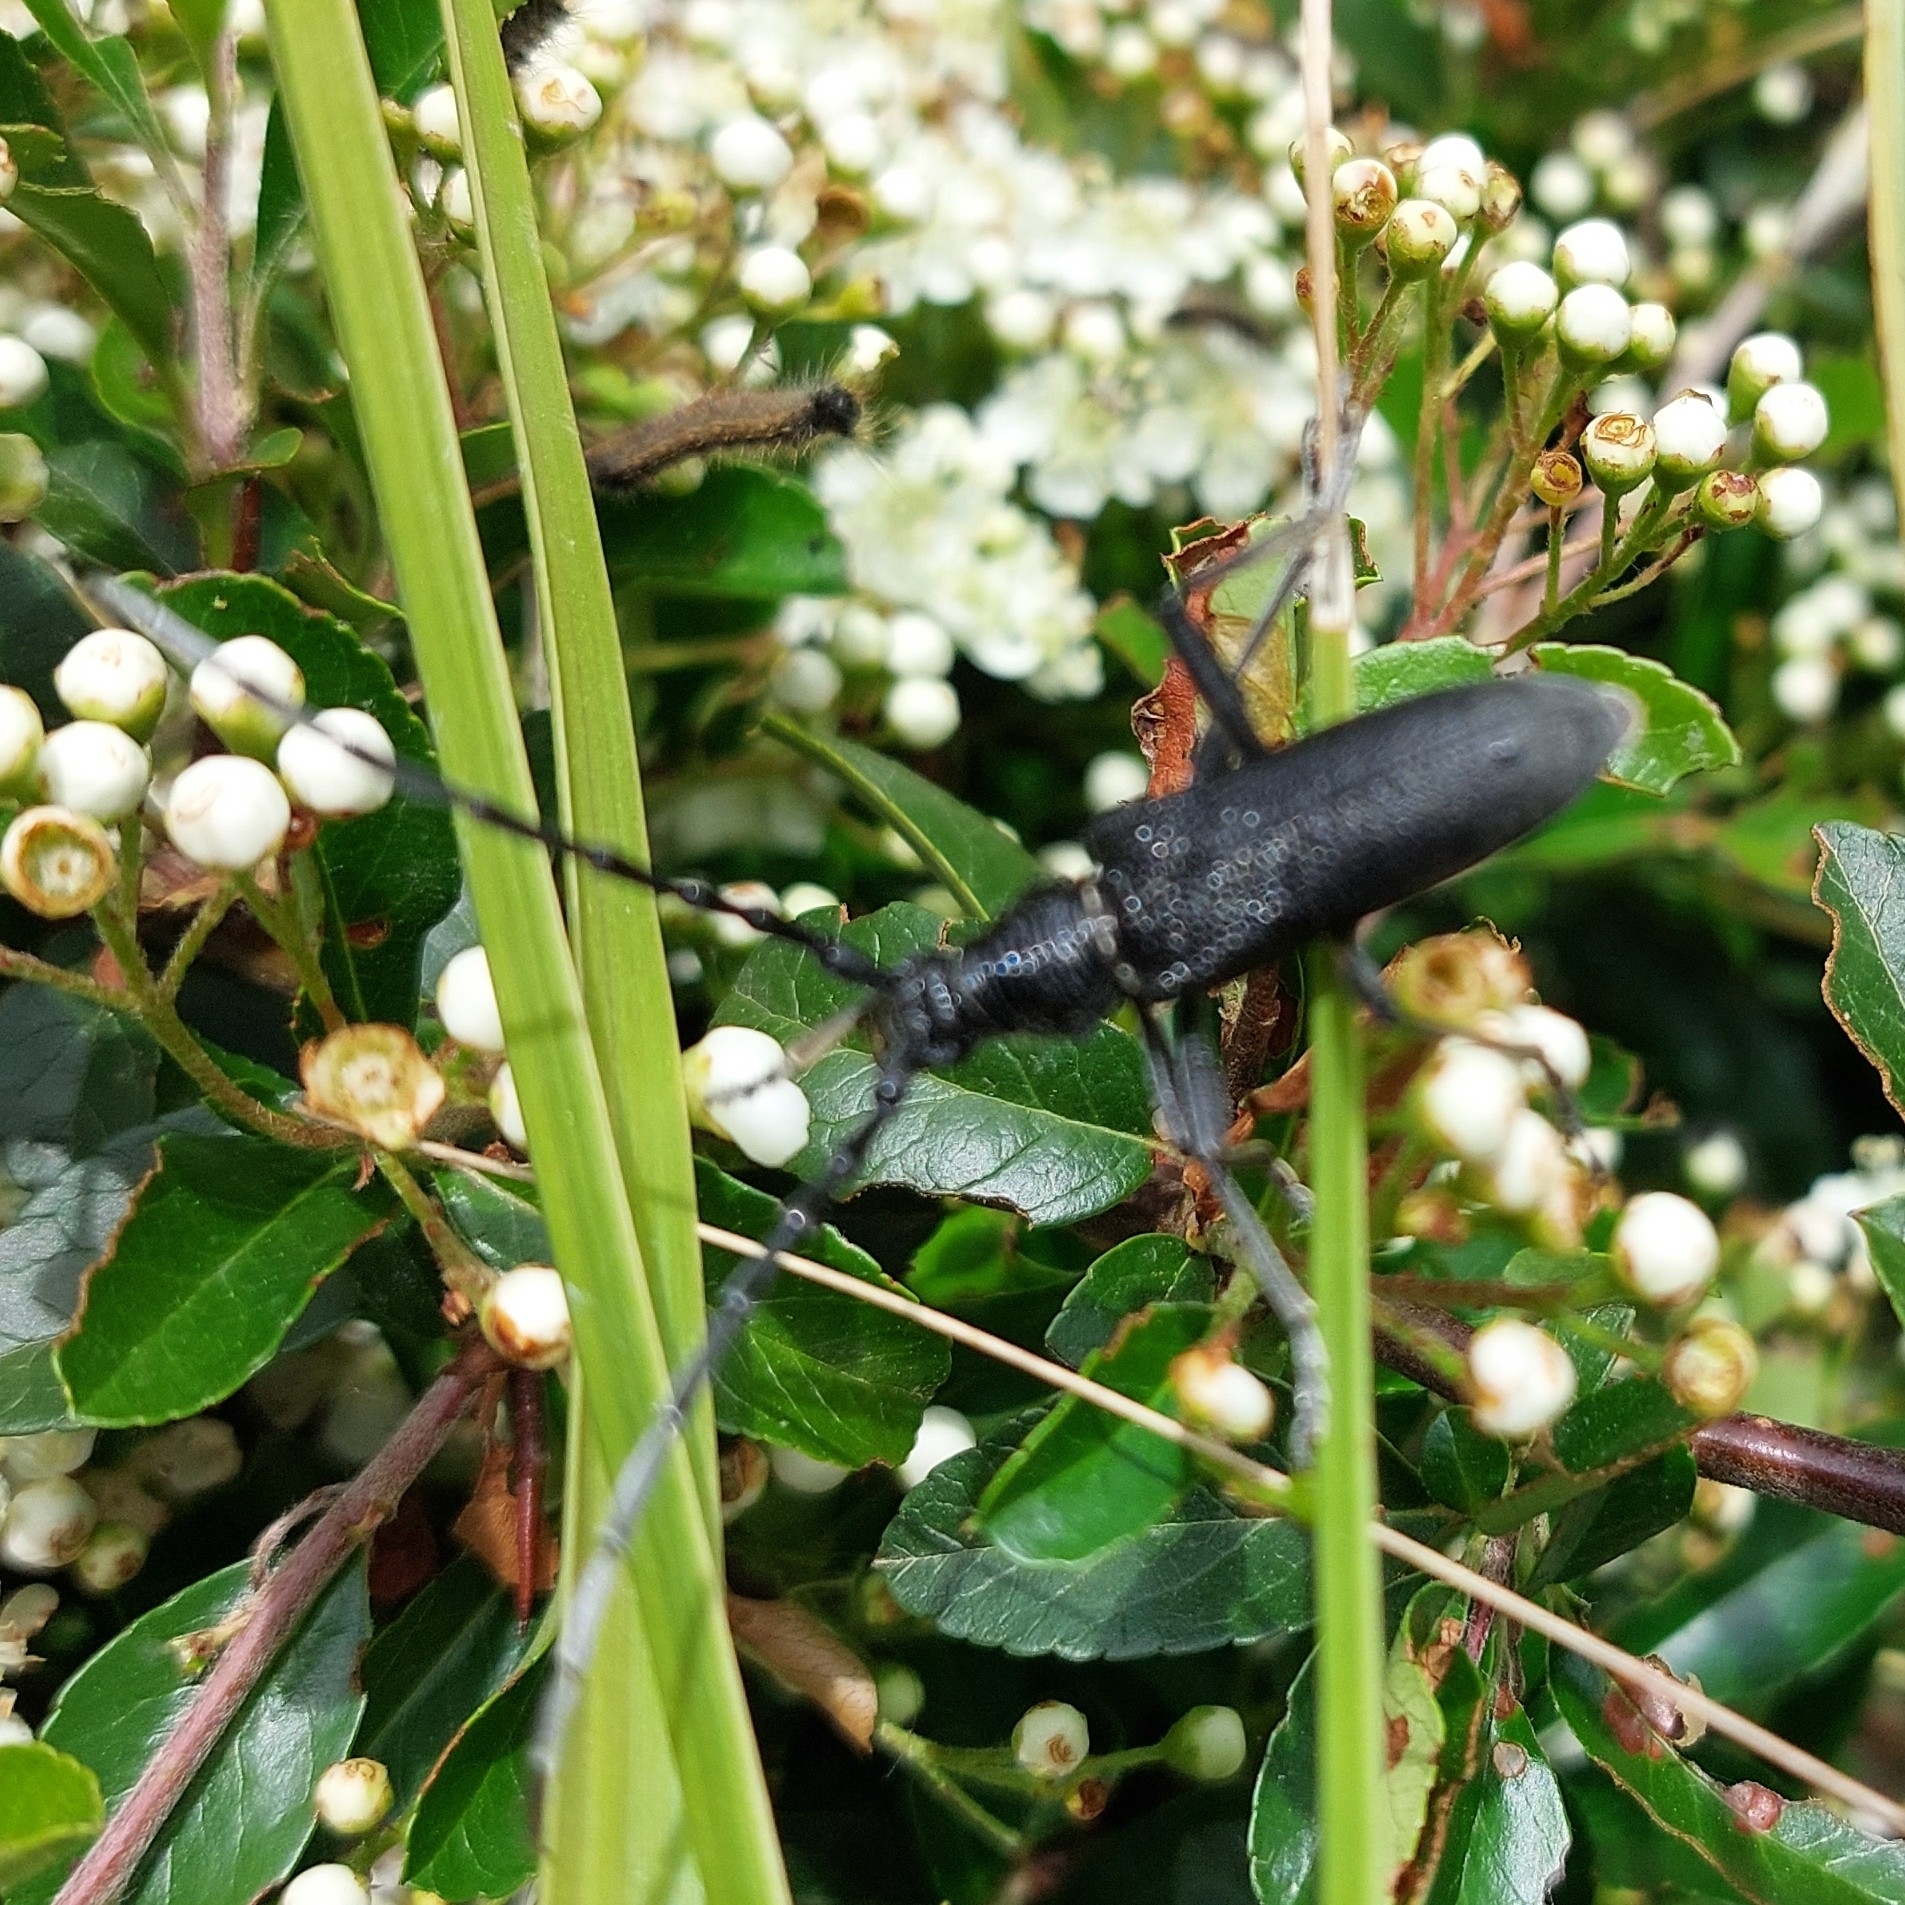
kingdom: Animalia
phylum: Arthropoda
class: Insecta
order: Coleoptera
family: Cerambycidae
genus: Cerambyx
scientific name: Cerambyx scopolii
